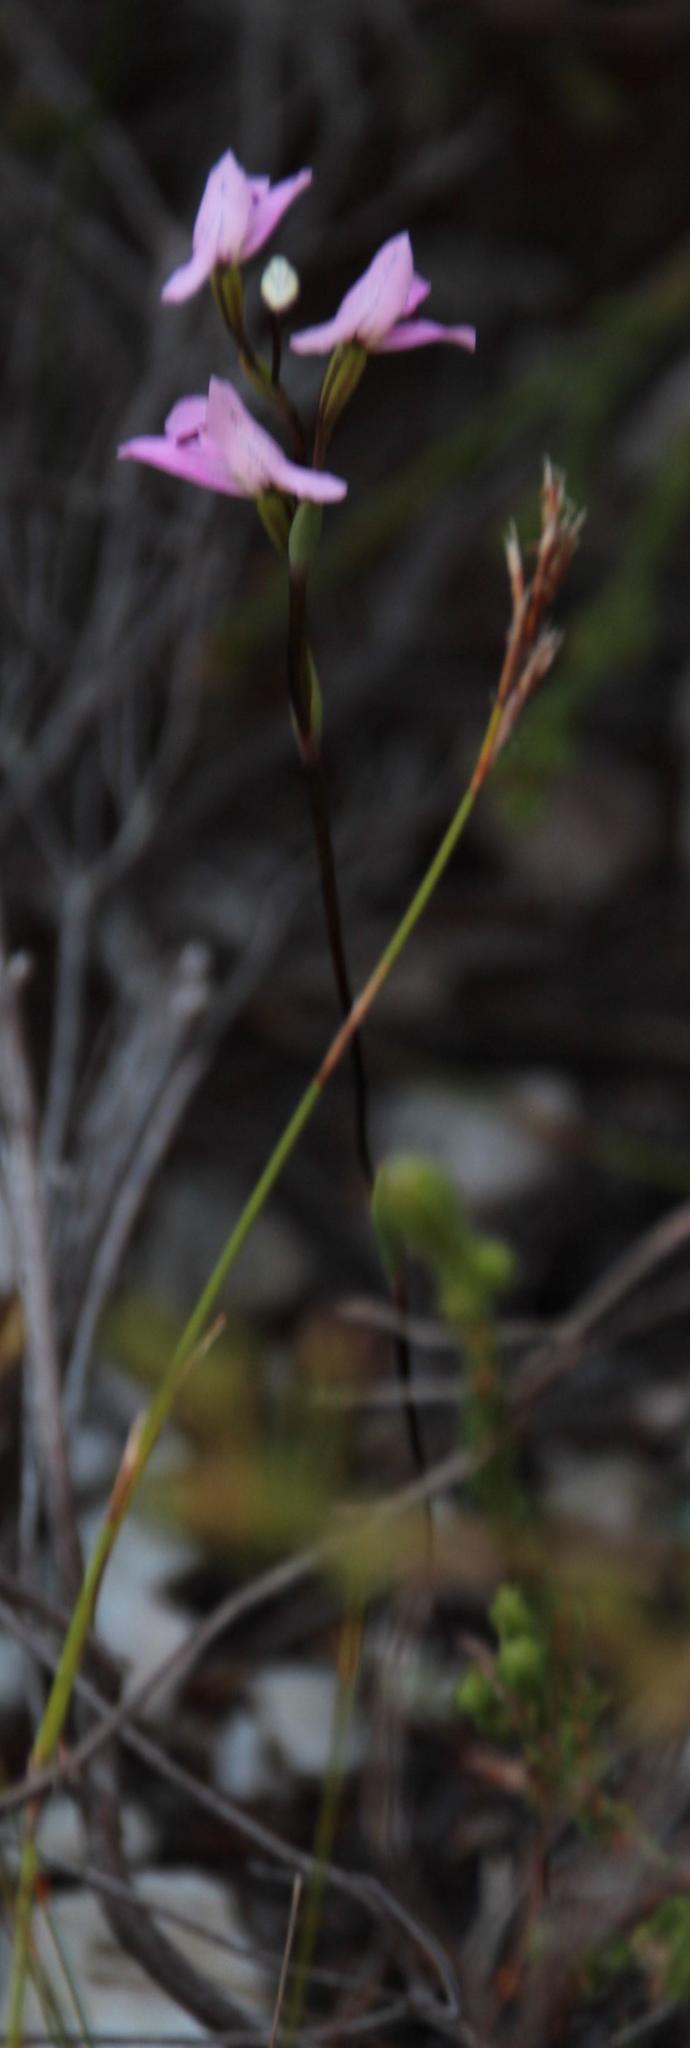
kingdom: Plantae
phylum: Tracheophyta
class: Liliopsida
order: Asparagales
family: Orchidaceae
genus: Disa
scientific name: Disa obliqua
